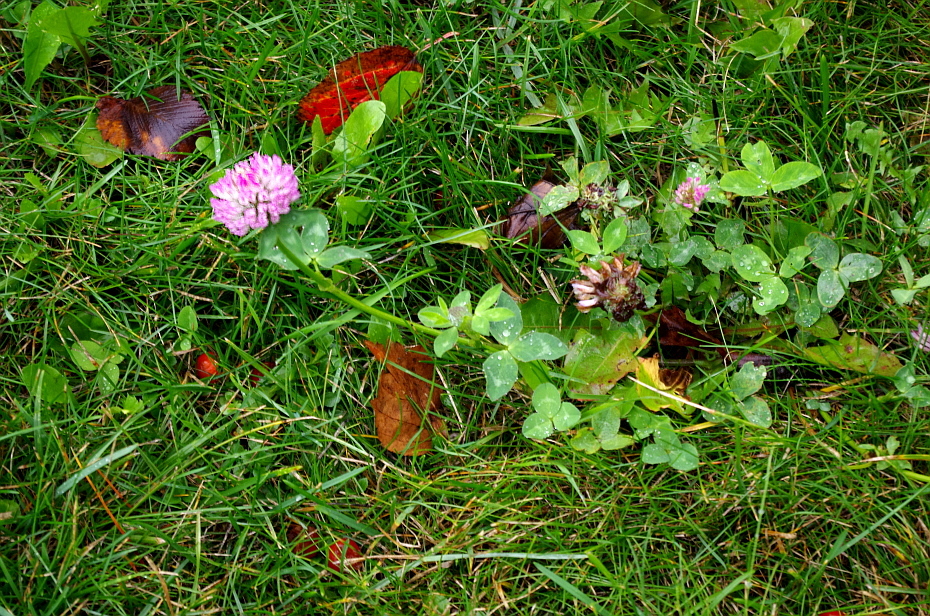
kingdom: Plantae
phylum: Tracheophyta
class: Magnoliopsida
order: Fabales
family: Fabaceae
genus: Trifolium
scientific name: Trifolium pratense
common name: Red clover
